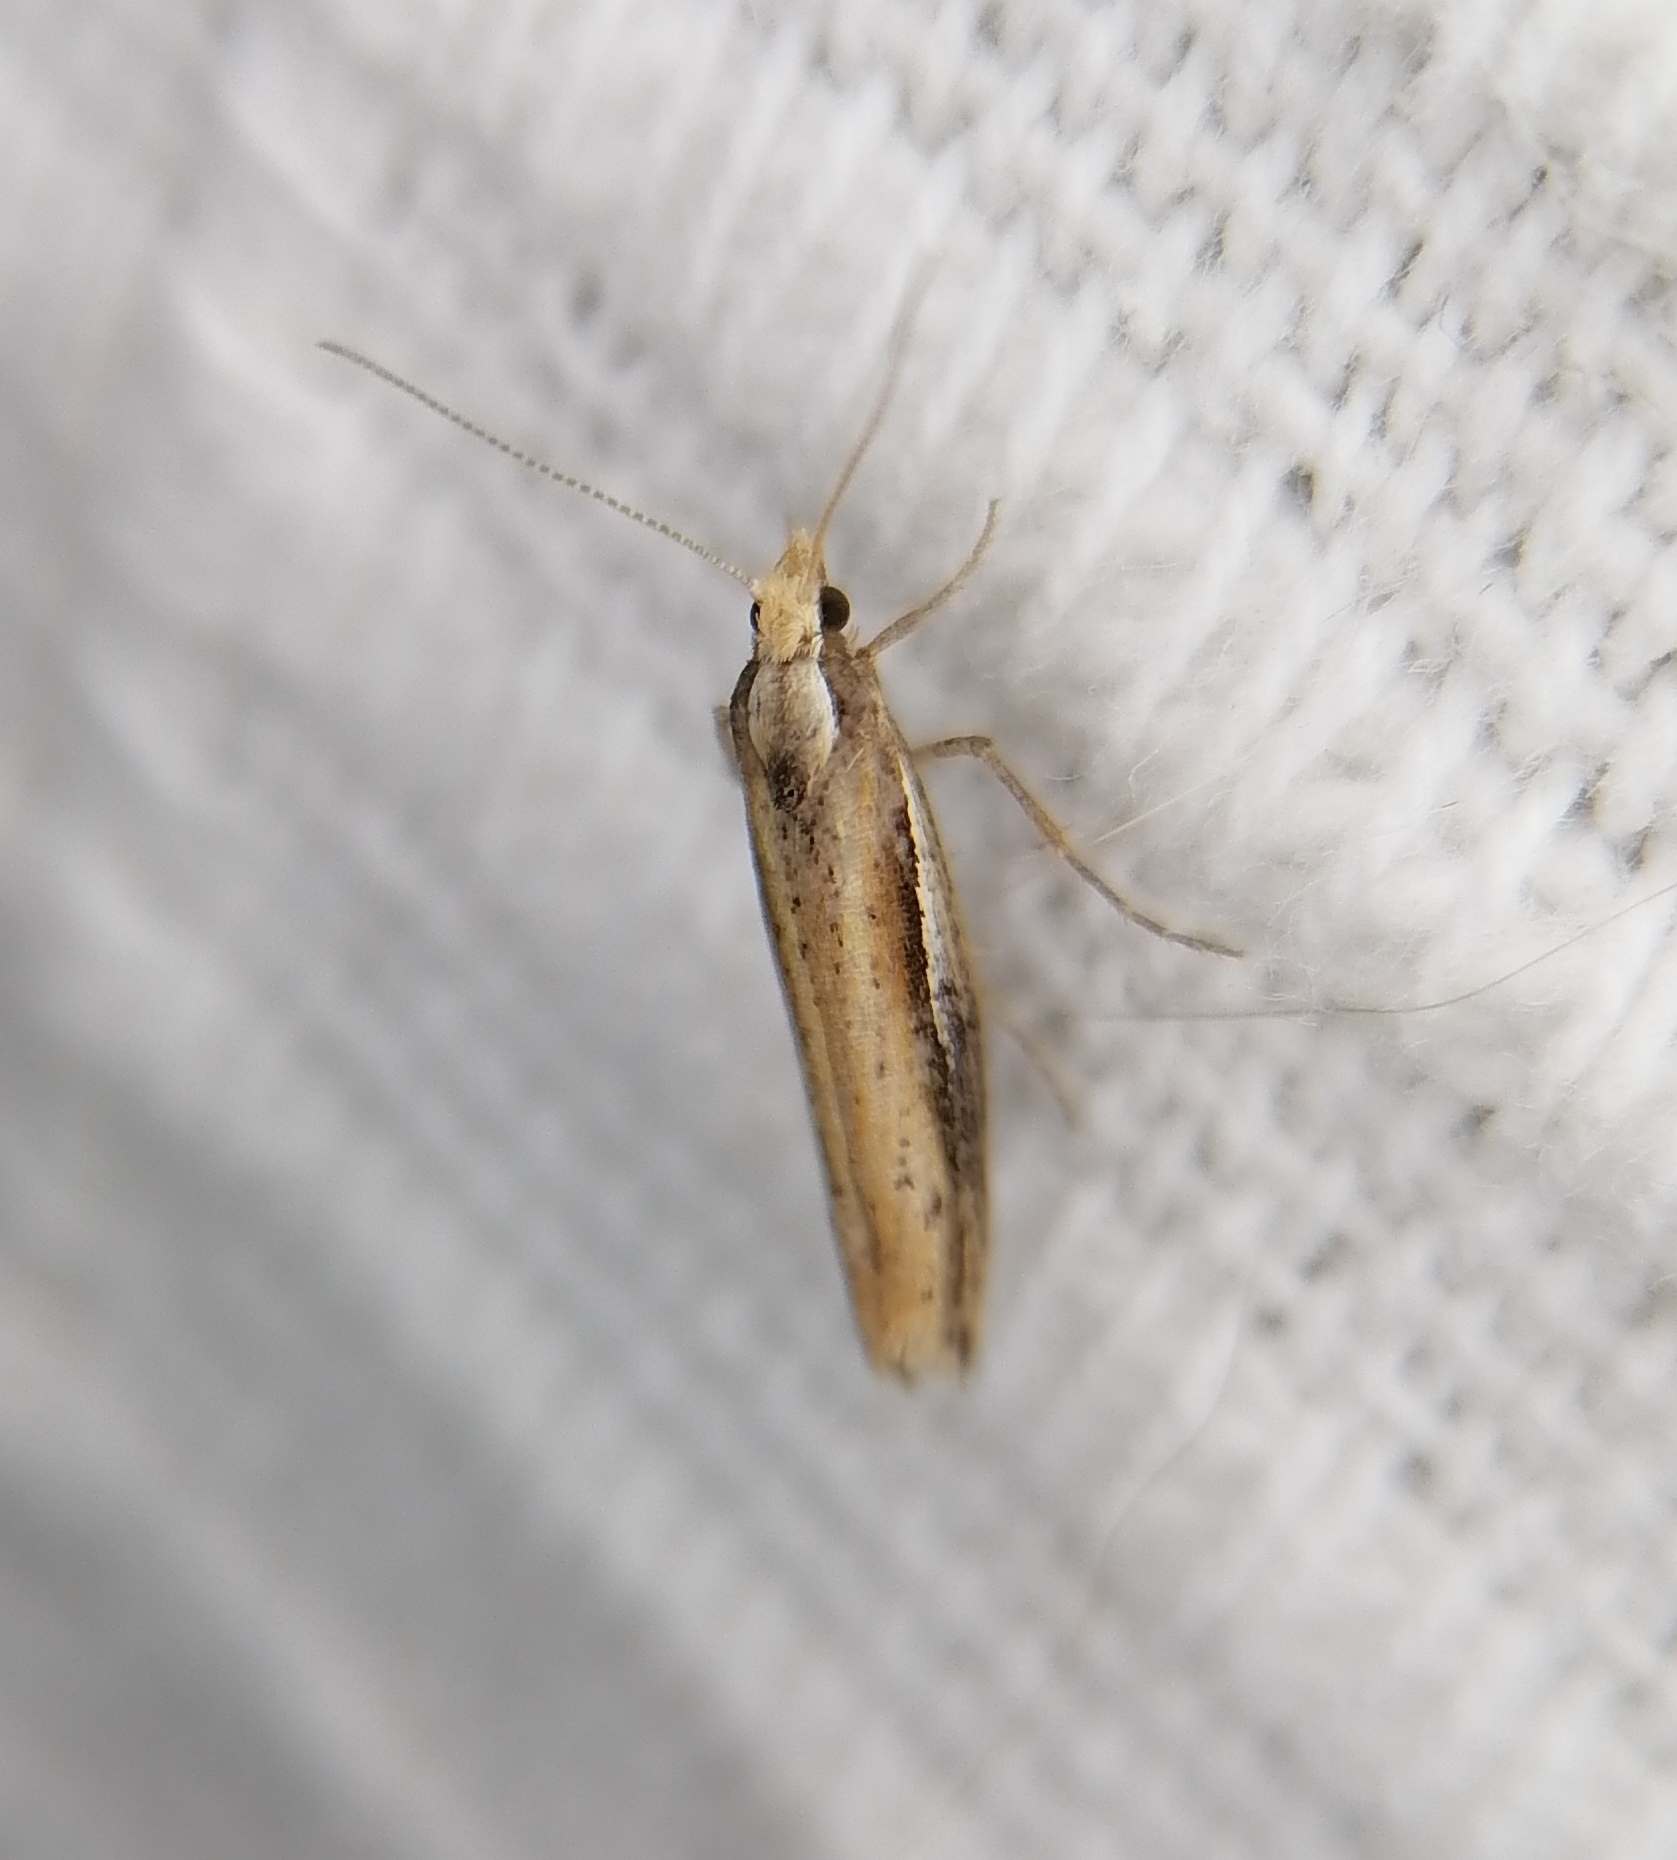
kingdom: Animalia
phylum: Arthropoda
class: Insecta
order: Lepidoptera
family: Ypsolophidae
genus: Ypsolopha
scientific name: Ypsolopha parenthesella
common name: White-shouldered smudge
